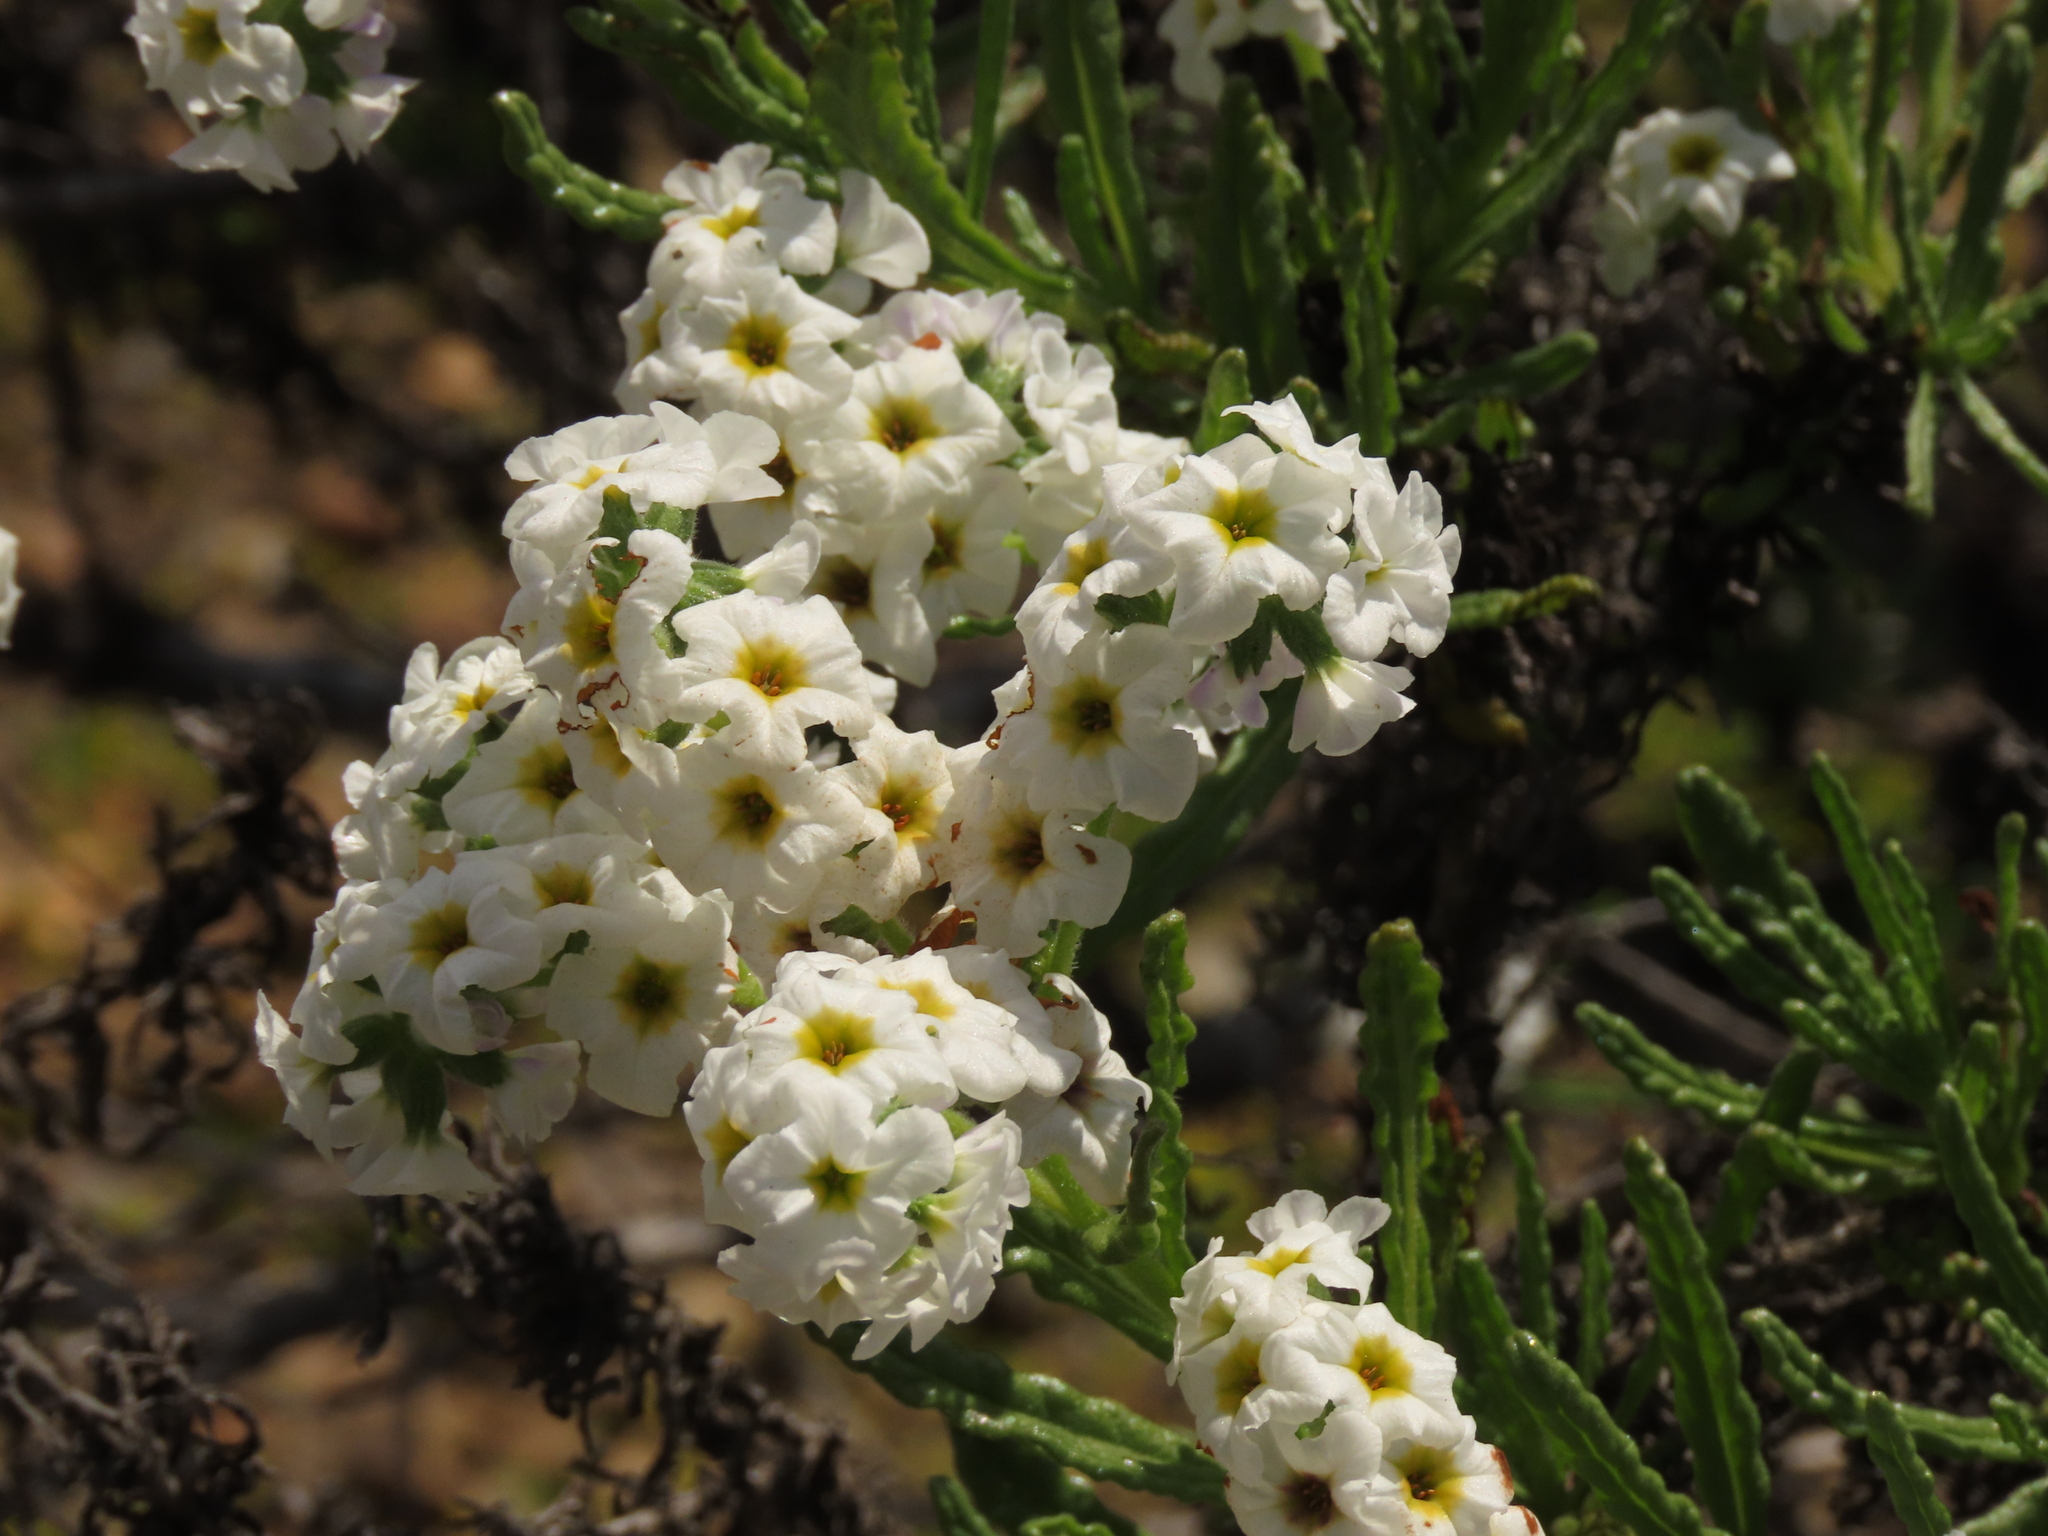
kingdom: Plantae
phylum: Tracheophyta
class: Magnoliopsida
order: Boraginales
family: Heliotropiaceae
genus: Heliotropium
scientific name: Heliotropium sinuatum
